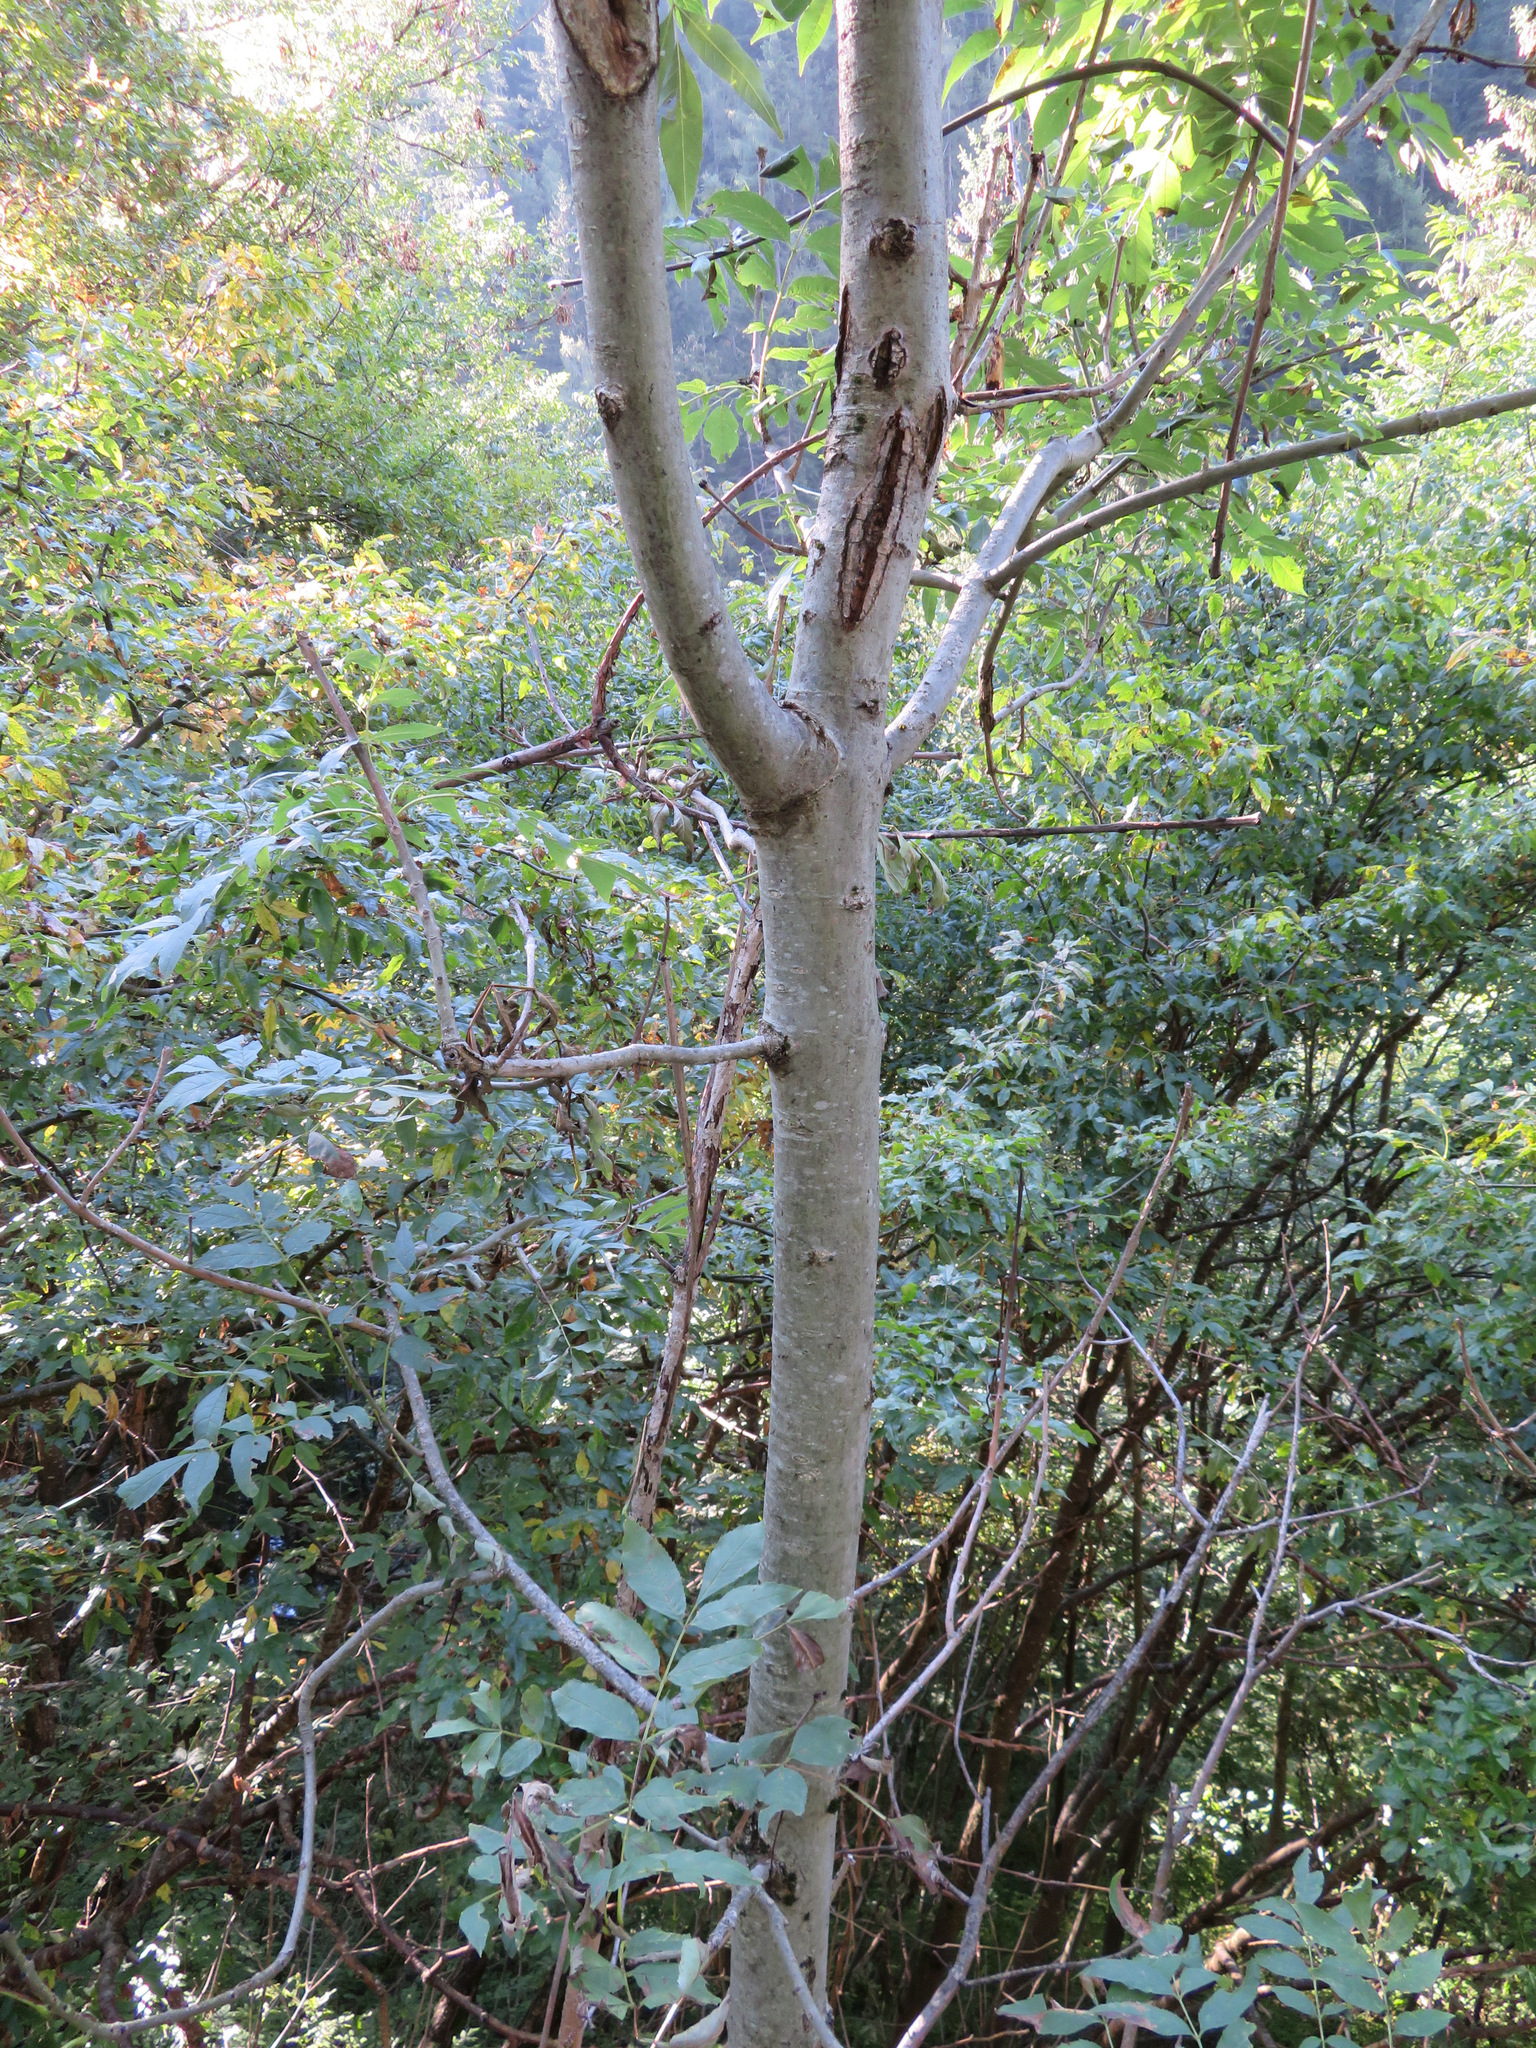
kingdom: Plantae
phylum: Tracheophyta
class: Magnoliopsida
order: Lamiales
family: Oleaceae
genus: Fraxinus
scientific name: Fraxinus excelsior
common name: European ash
